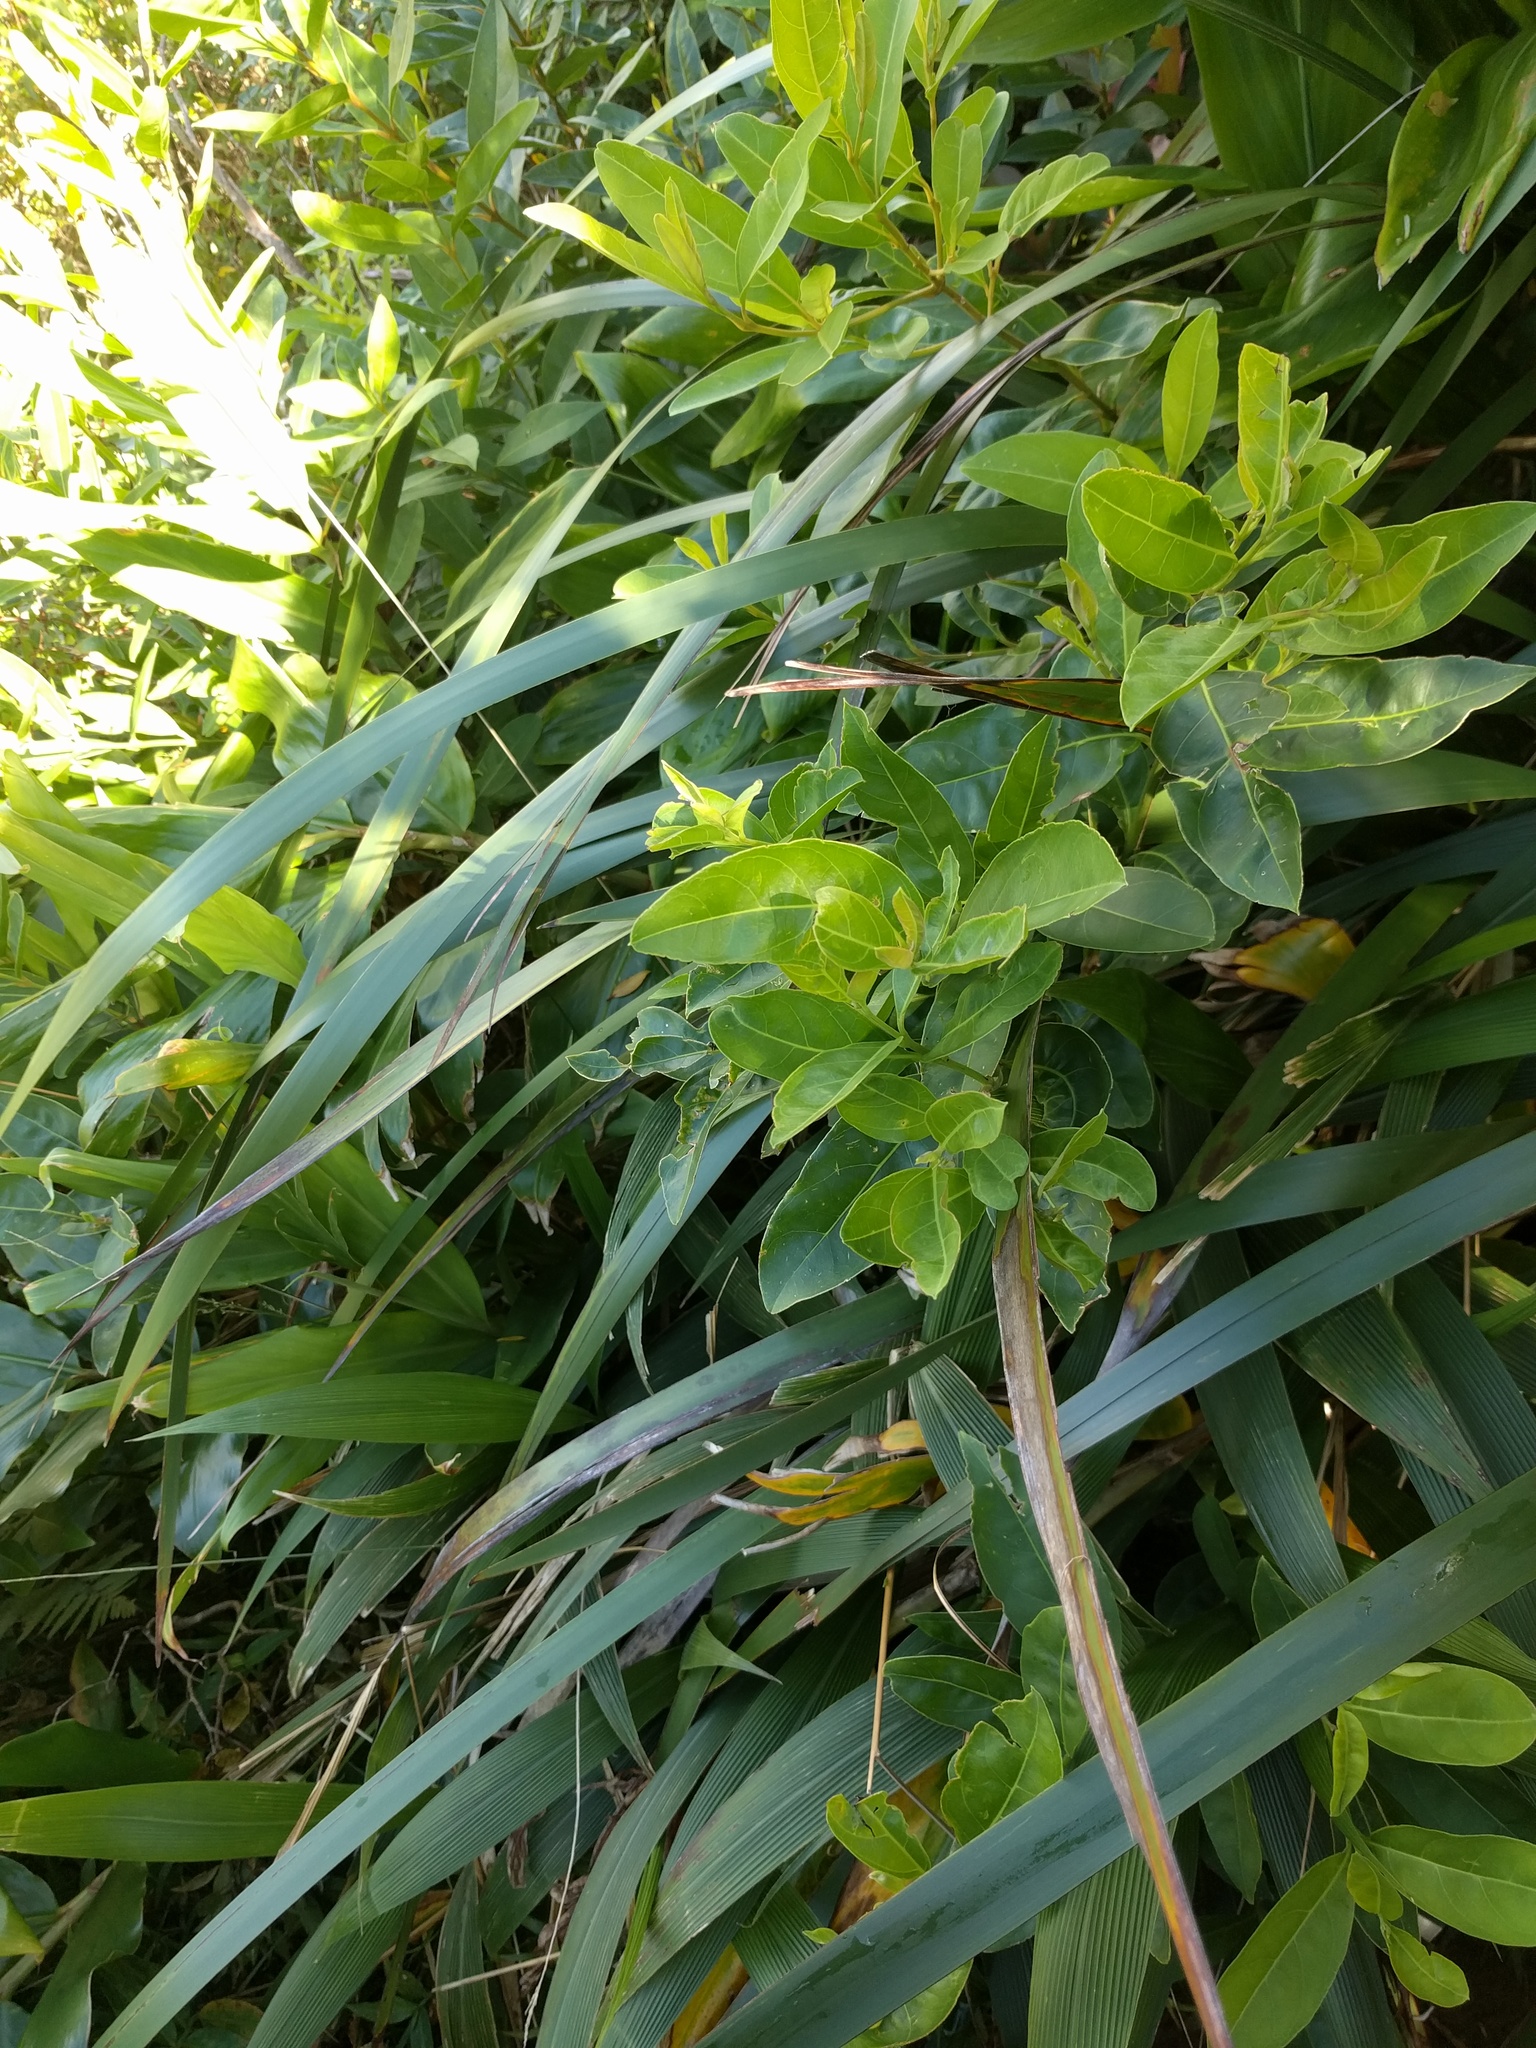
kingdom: Plantae
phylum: Tracheophyta
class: Liliopsida
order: Poales
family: Cyperaceae
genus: Machaerina
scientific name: Machaerina angustifolia
